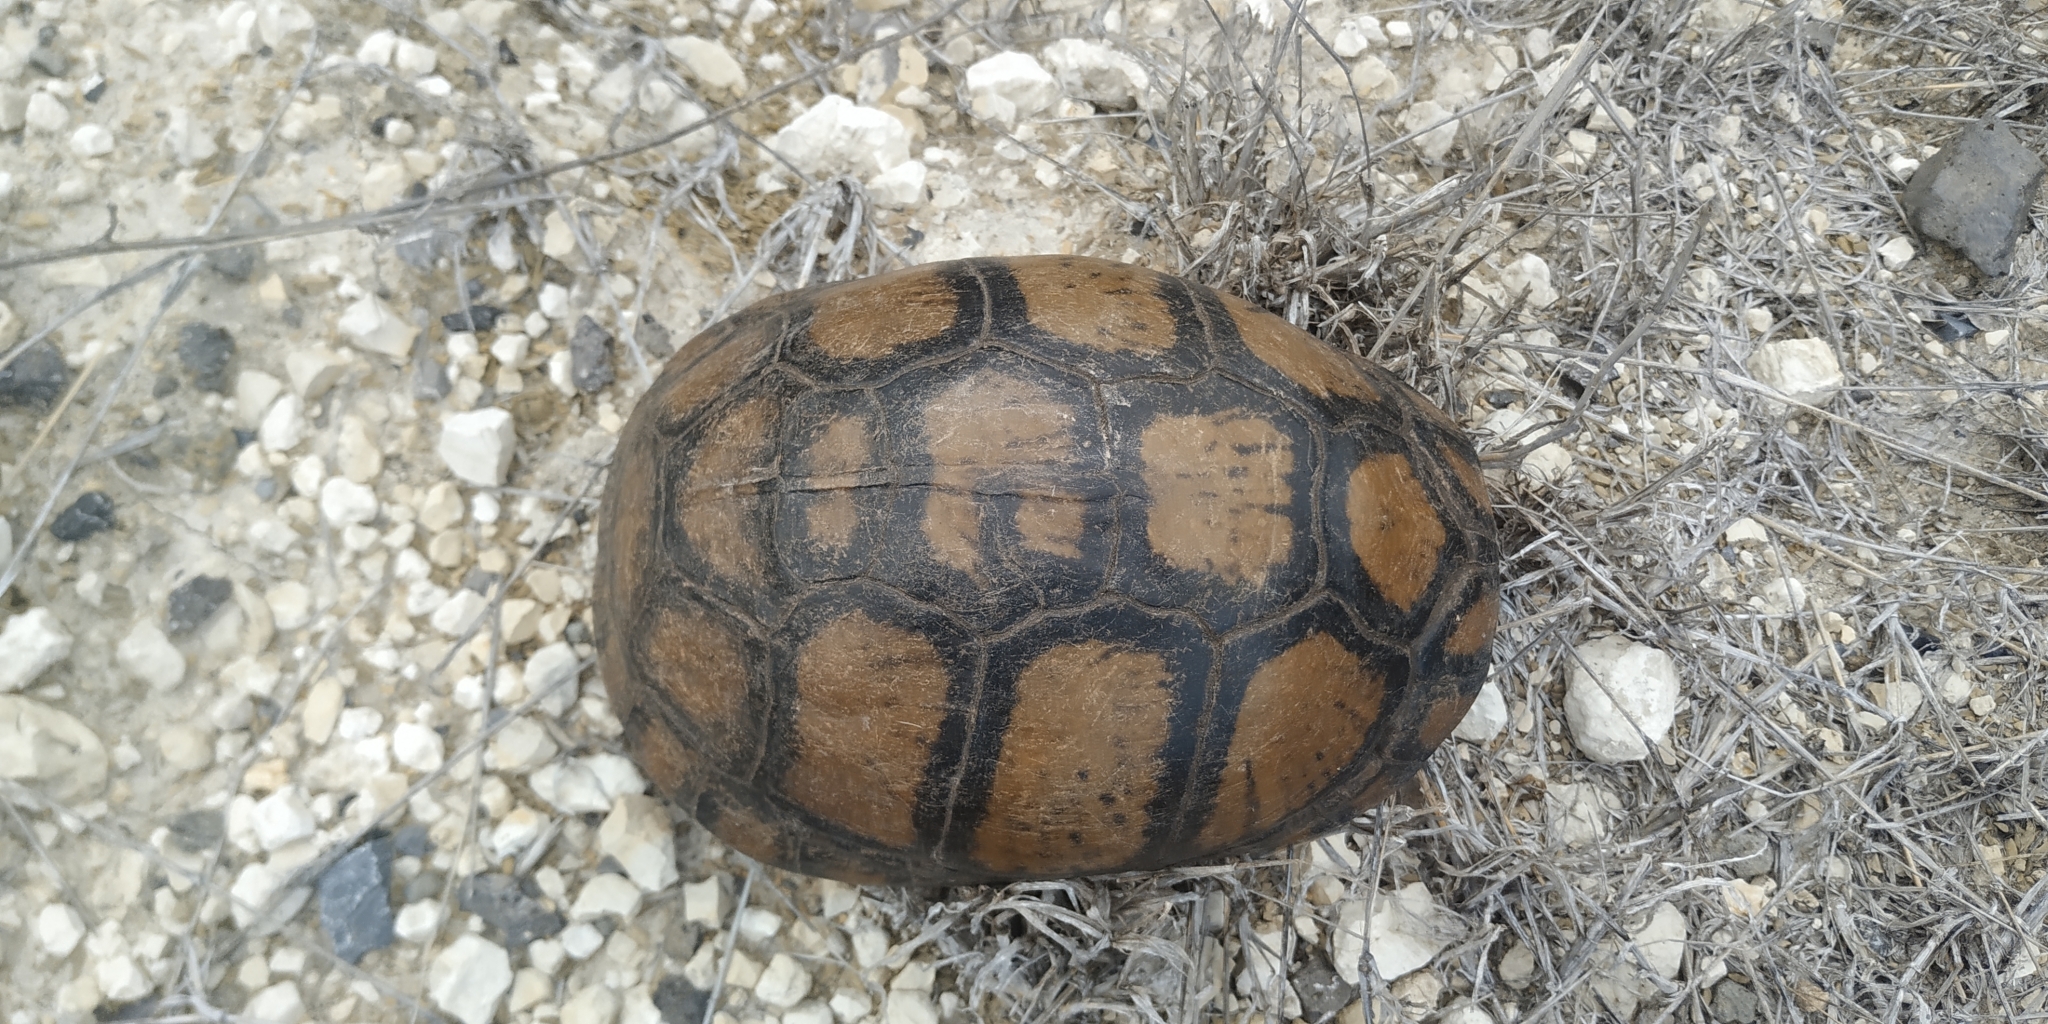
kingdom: Animalia
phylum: Chordata
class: Testudines
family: Emydidae
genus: Terrapene
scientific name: Terrapene mexicana
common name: Mexican box turtle
